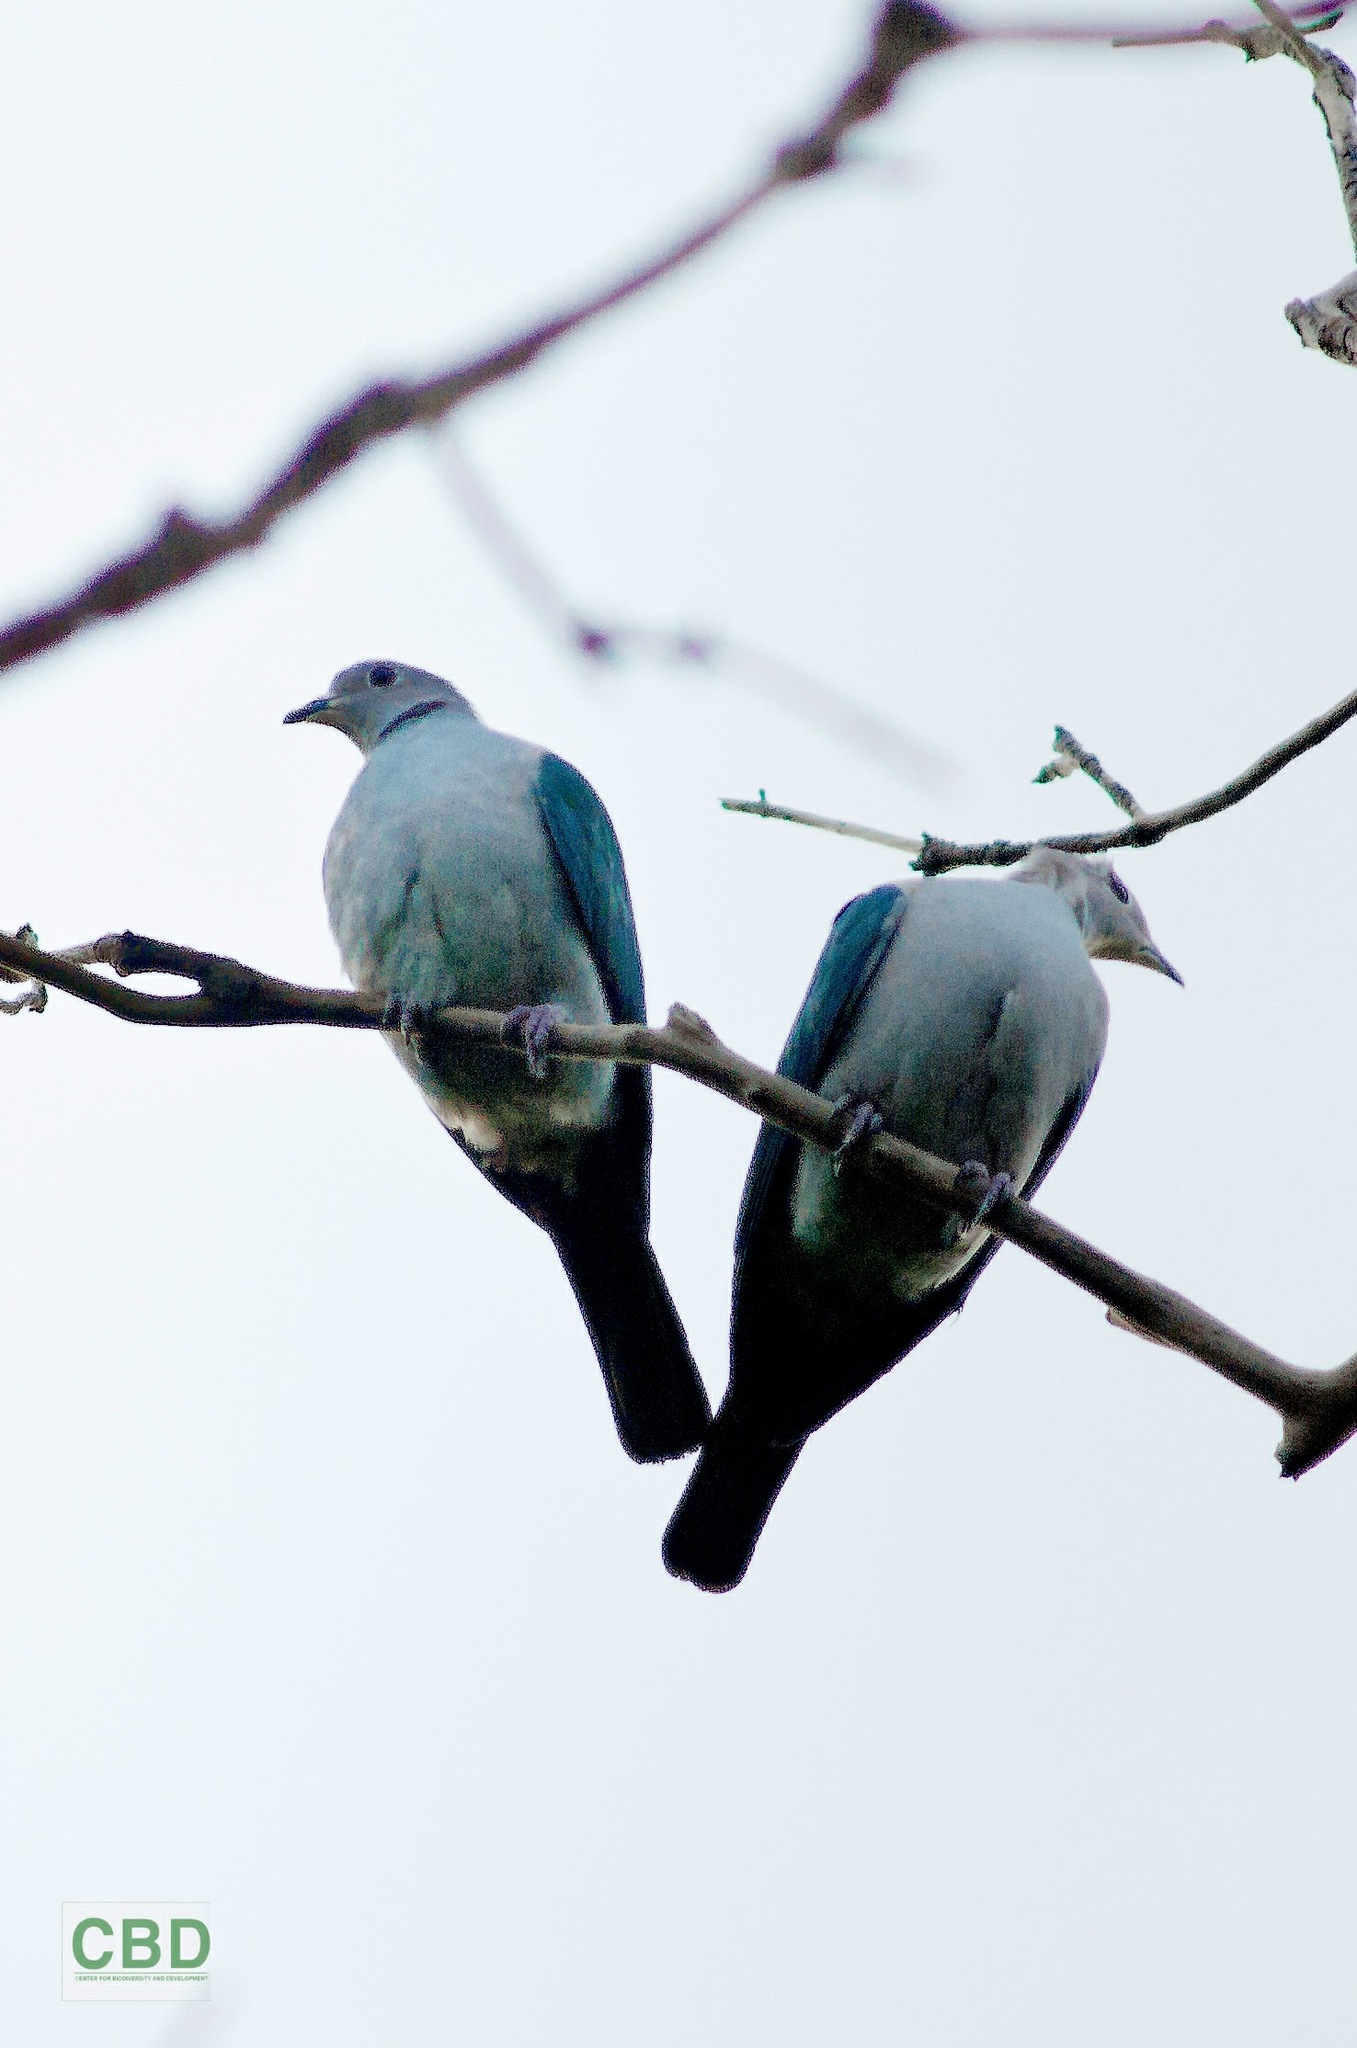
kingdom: Animalia
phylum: Chordata
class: Aves
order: Columbiformes
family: Columbidae
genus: Ducula
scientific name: Ducula aenea
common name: Green imperial pigeon
